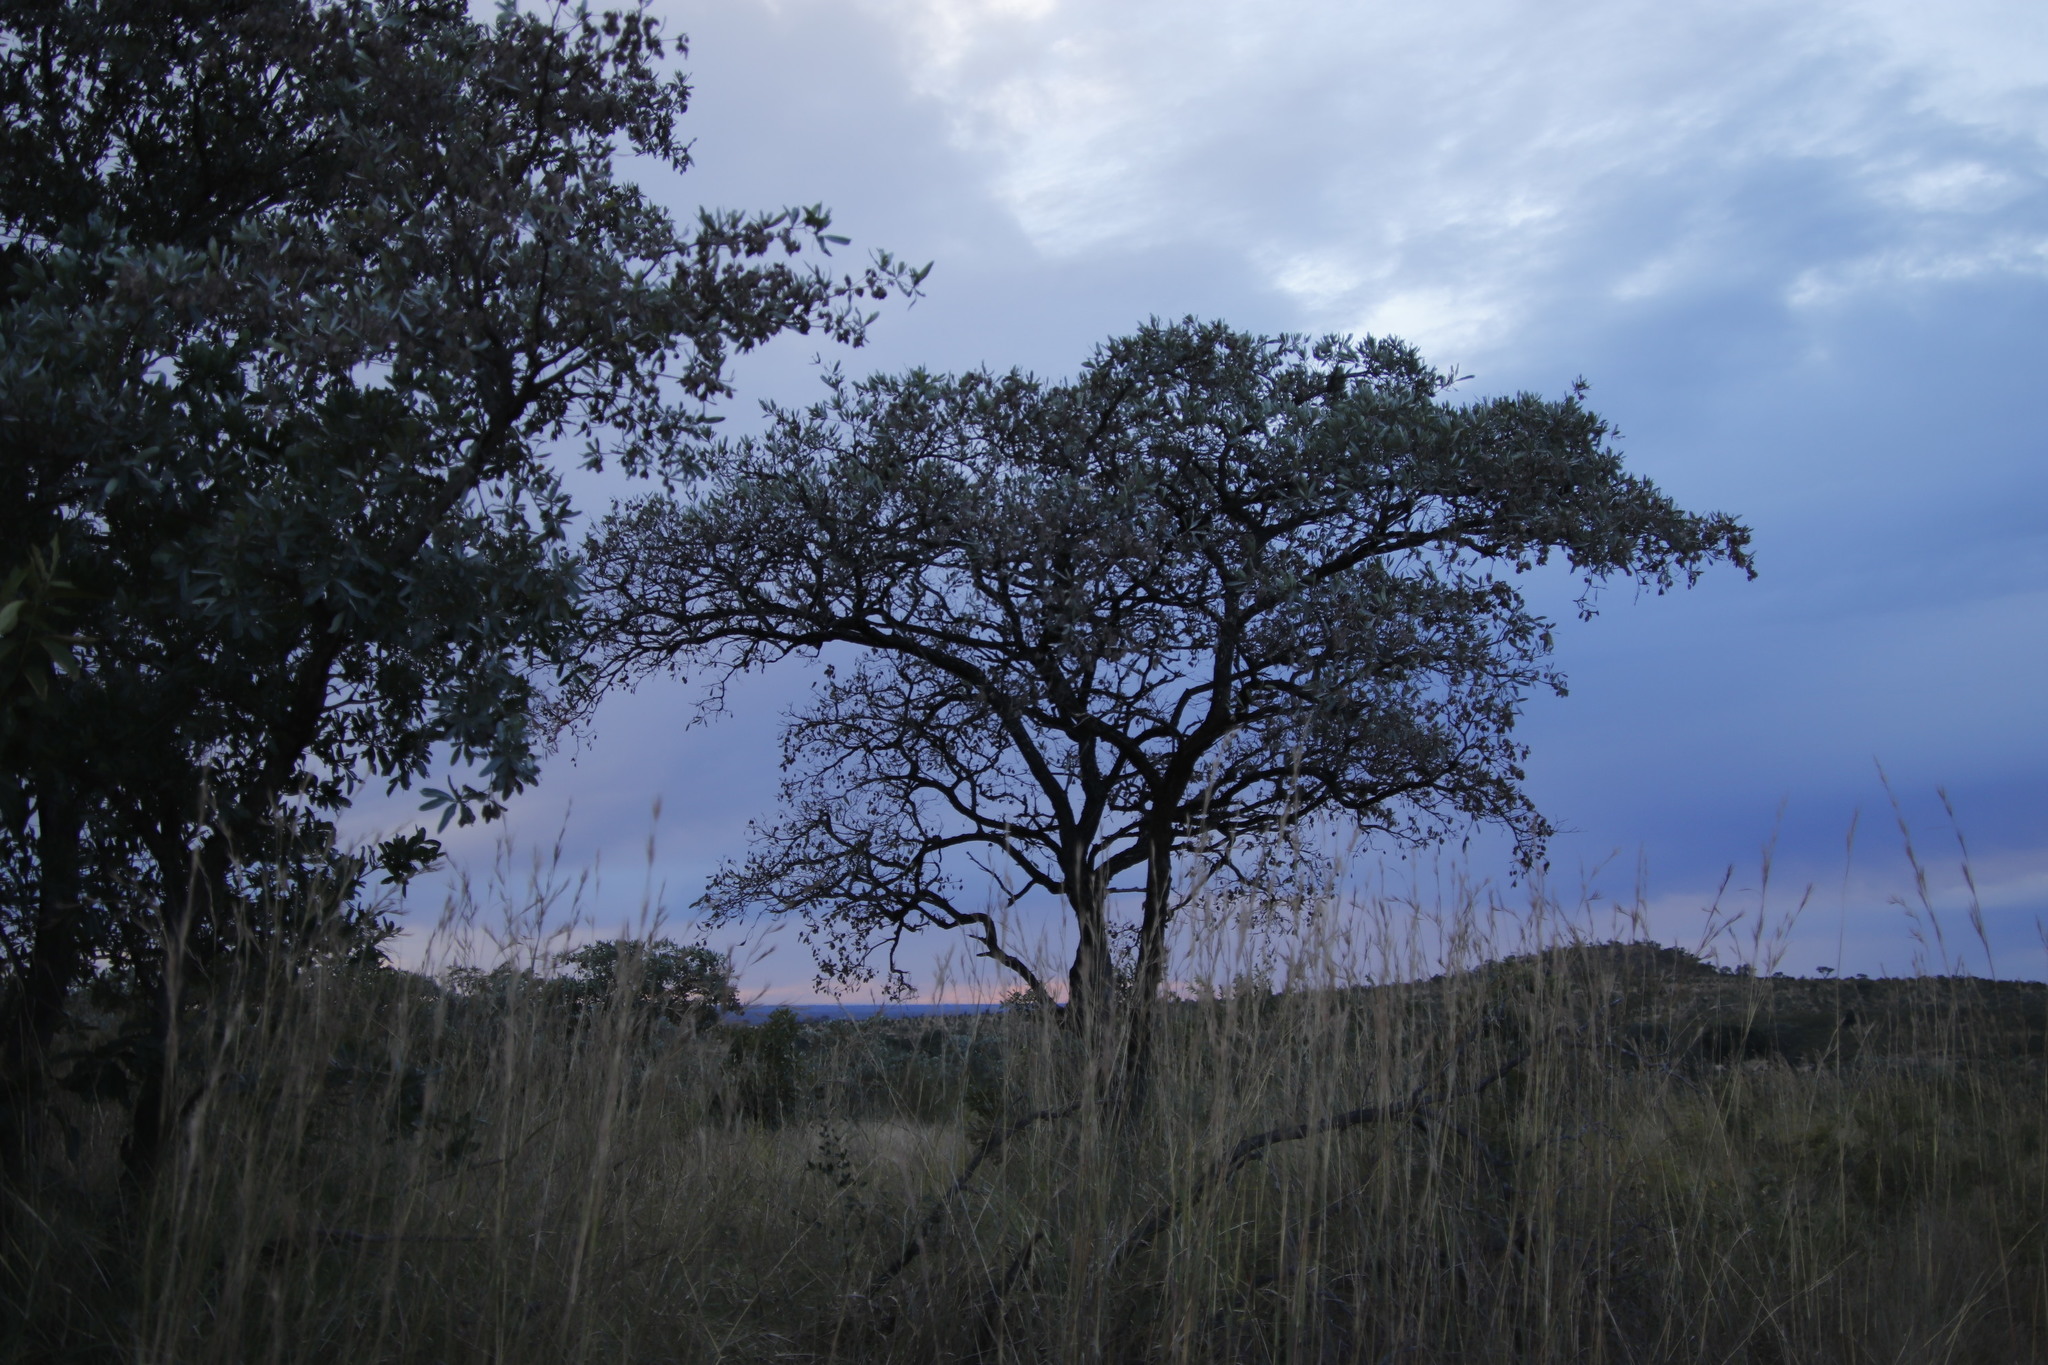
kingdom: Plantae
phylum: Tracheophyta
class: Magnoliopsida
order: Myrtales
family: Combretaceae
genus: Terminalia
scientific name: Terminalia sericea
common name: Clusterleaf
